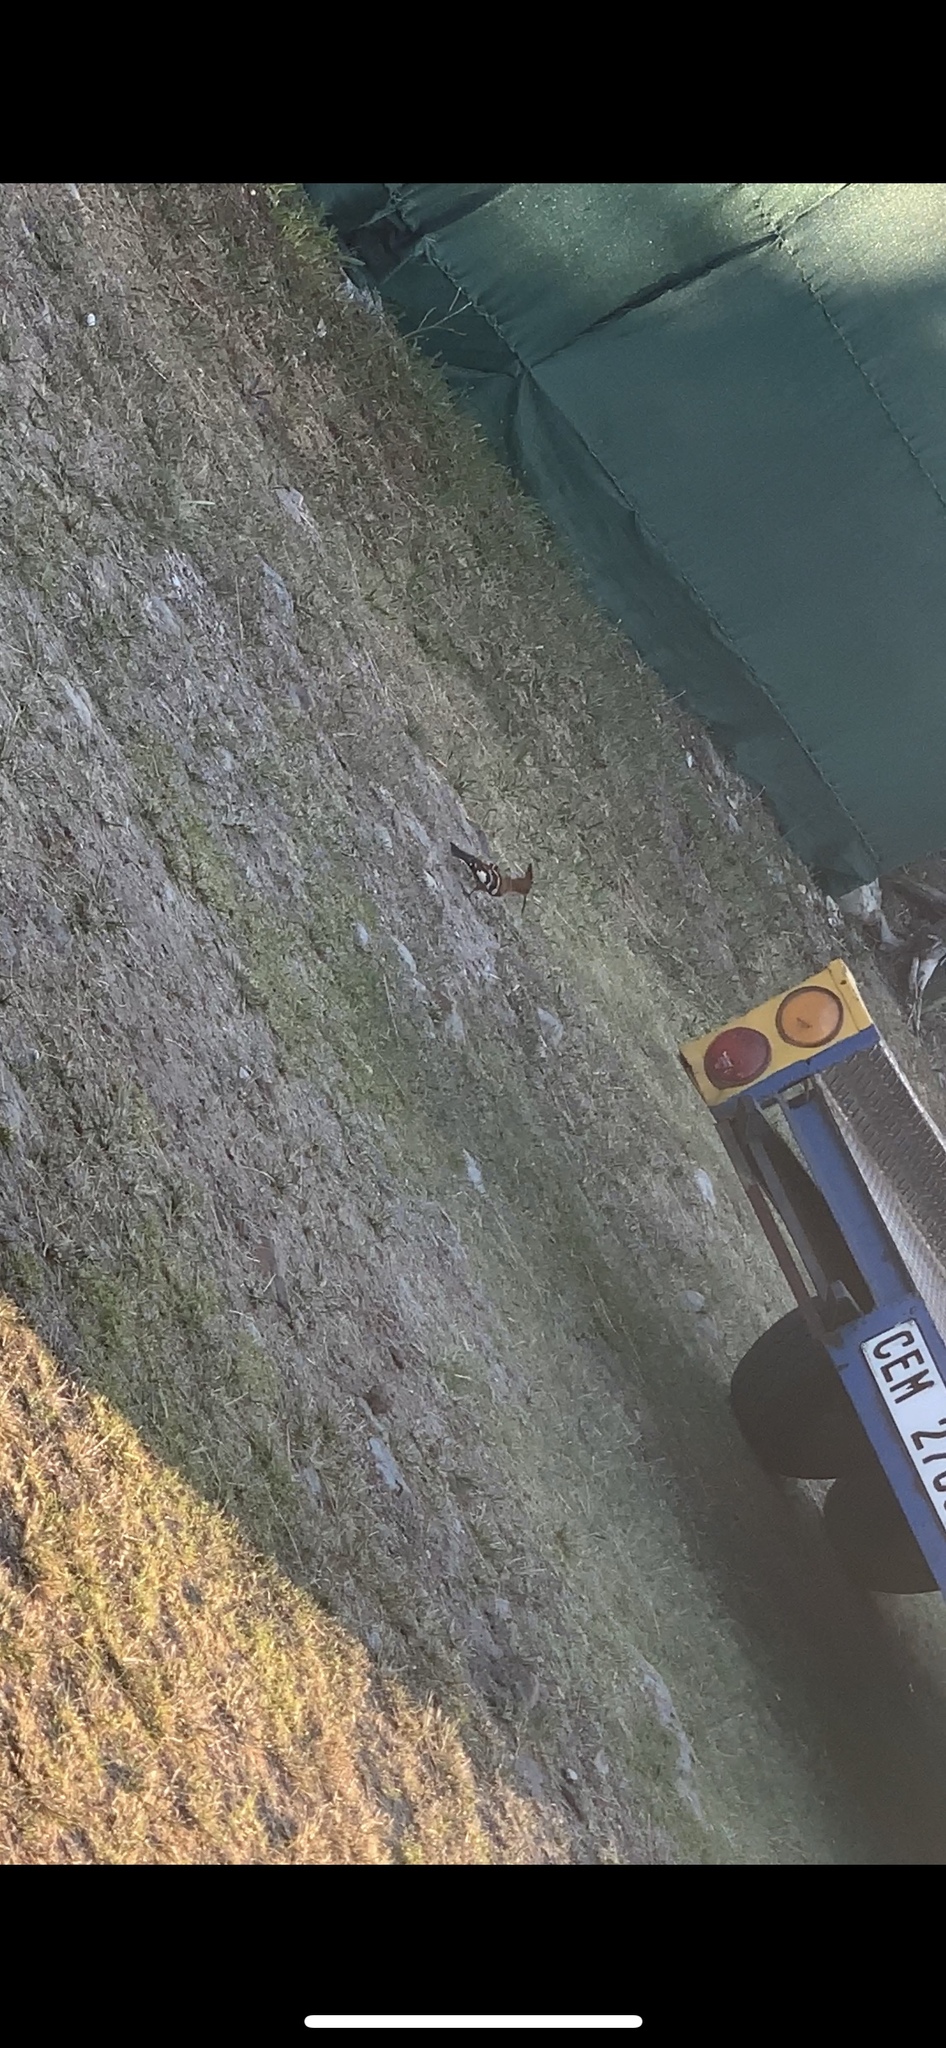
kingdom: Animalia
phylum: Chordata
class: Aves
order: Bucerotiformes
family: Upupidae
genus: Upupa
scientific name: Upupa africana
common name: African hoopoe
